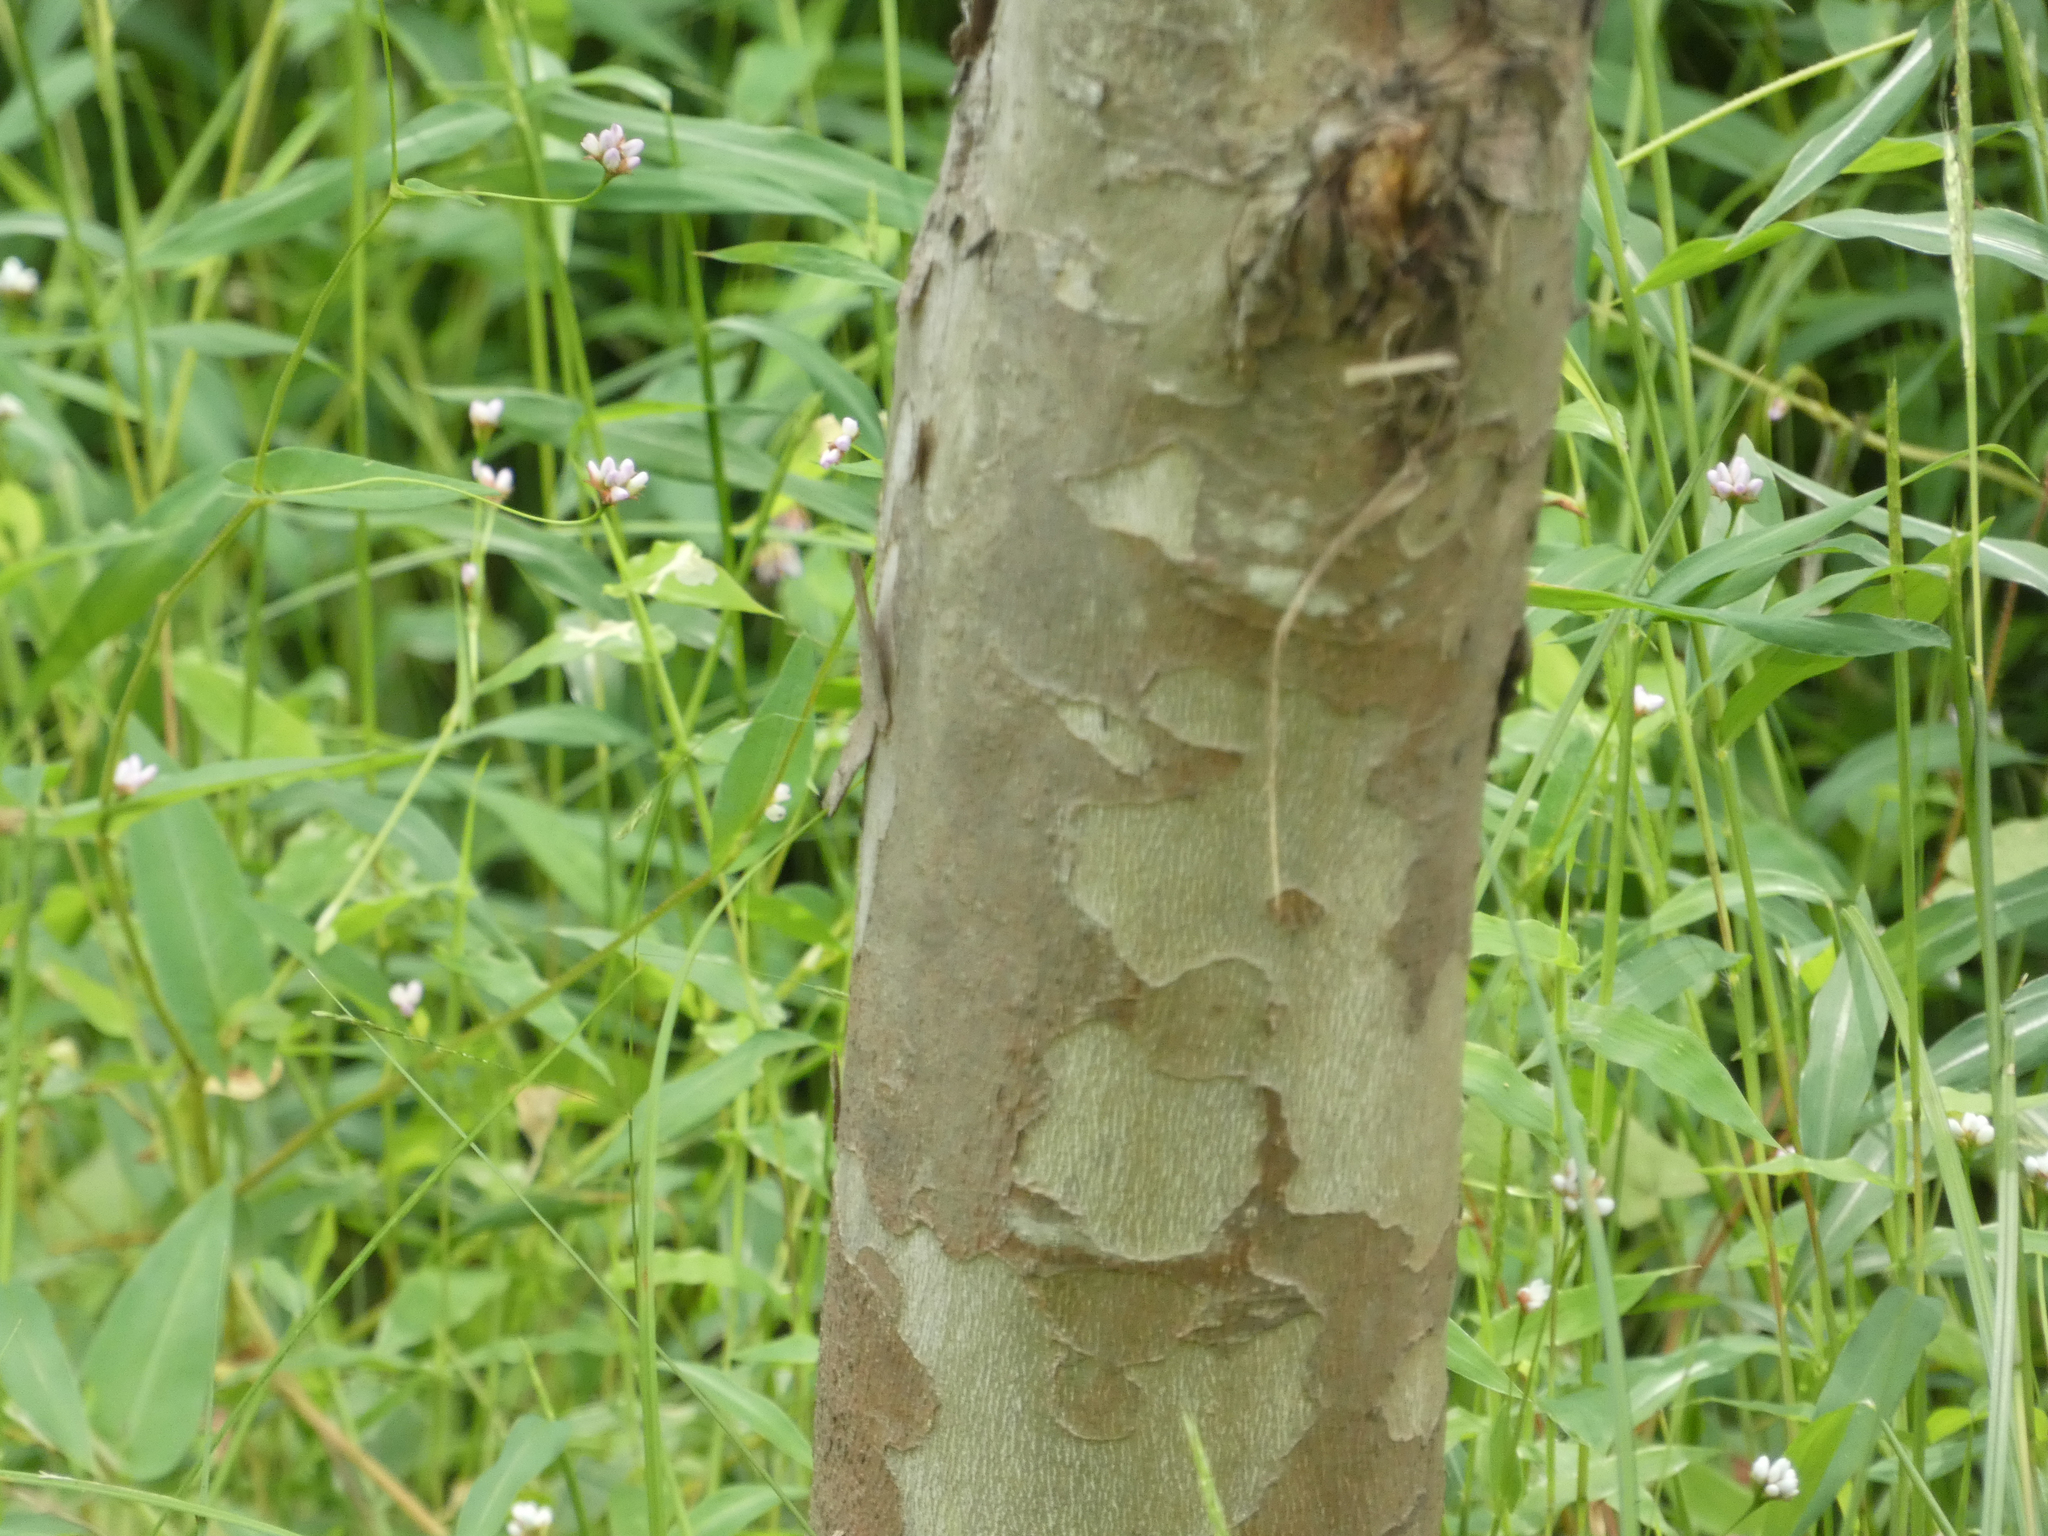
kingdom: Plantae
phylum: Tracheophyta
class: Magnoliopsida
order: Proteales
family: Platanaceae
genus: Platanus
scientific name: Platanus occidentalis
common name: American sycamore
